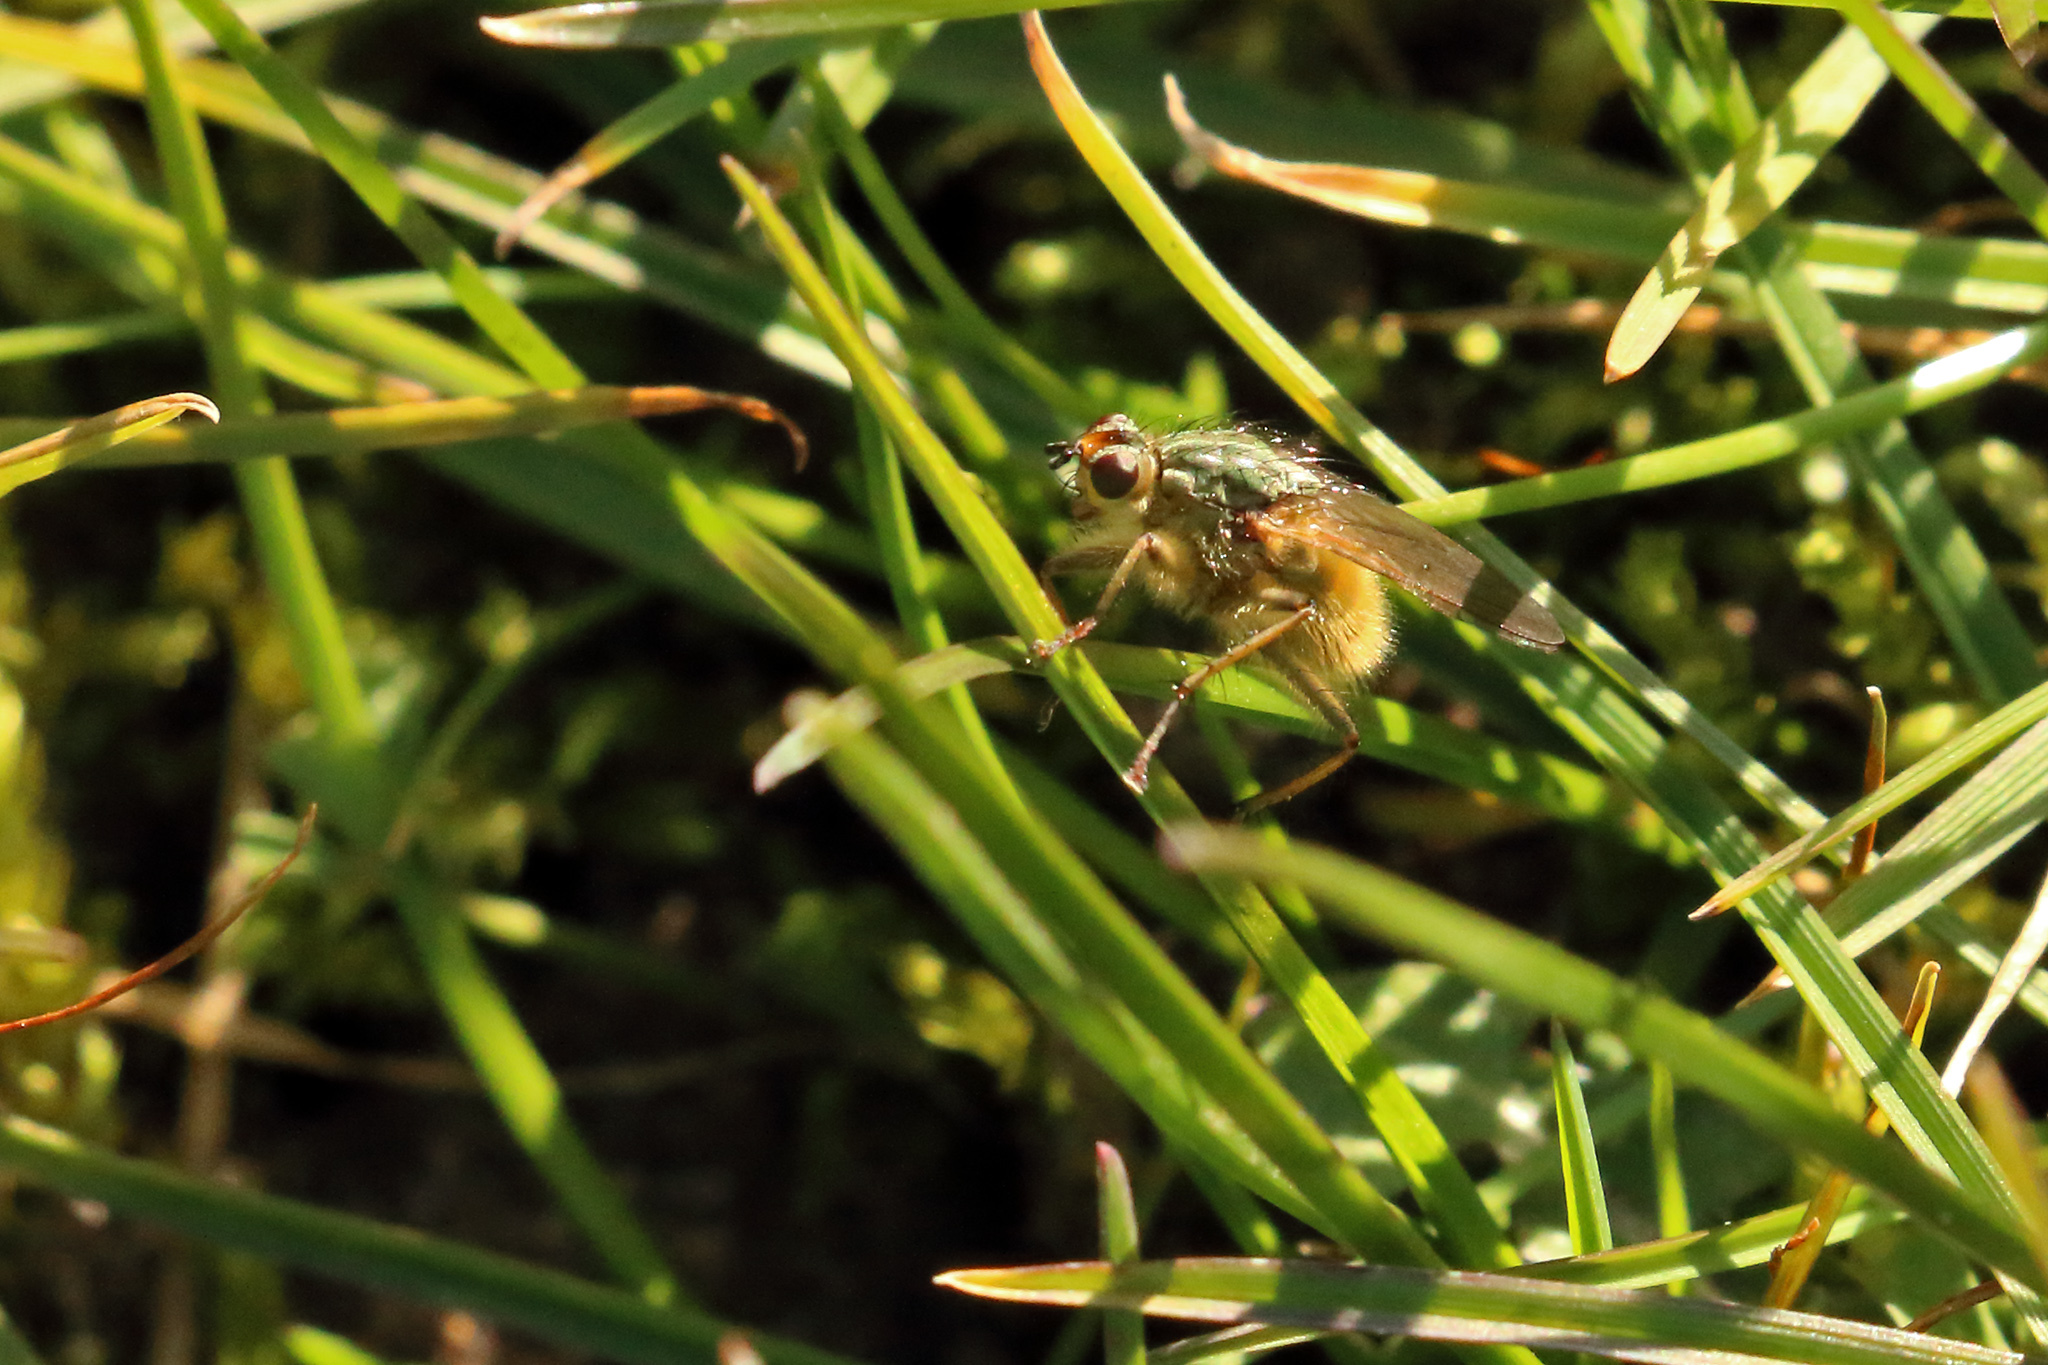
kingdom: Animalia
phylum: Arthropoda
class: Insecta
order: Diptera
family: Scathophagidae
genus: Scathophaga
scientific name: Scathophaga stercoraria
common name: Yellow dung fly
